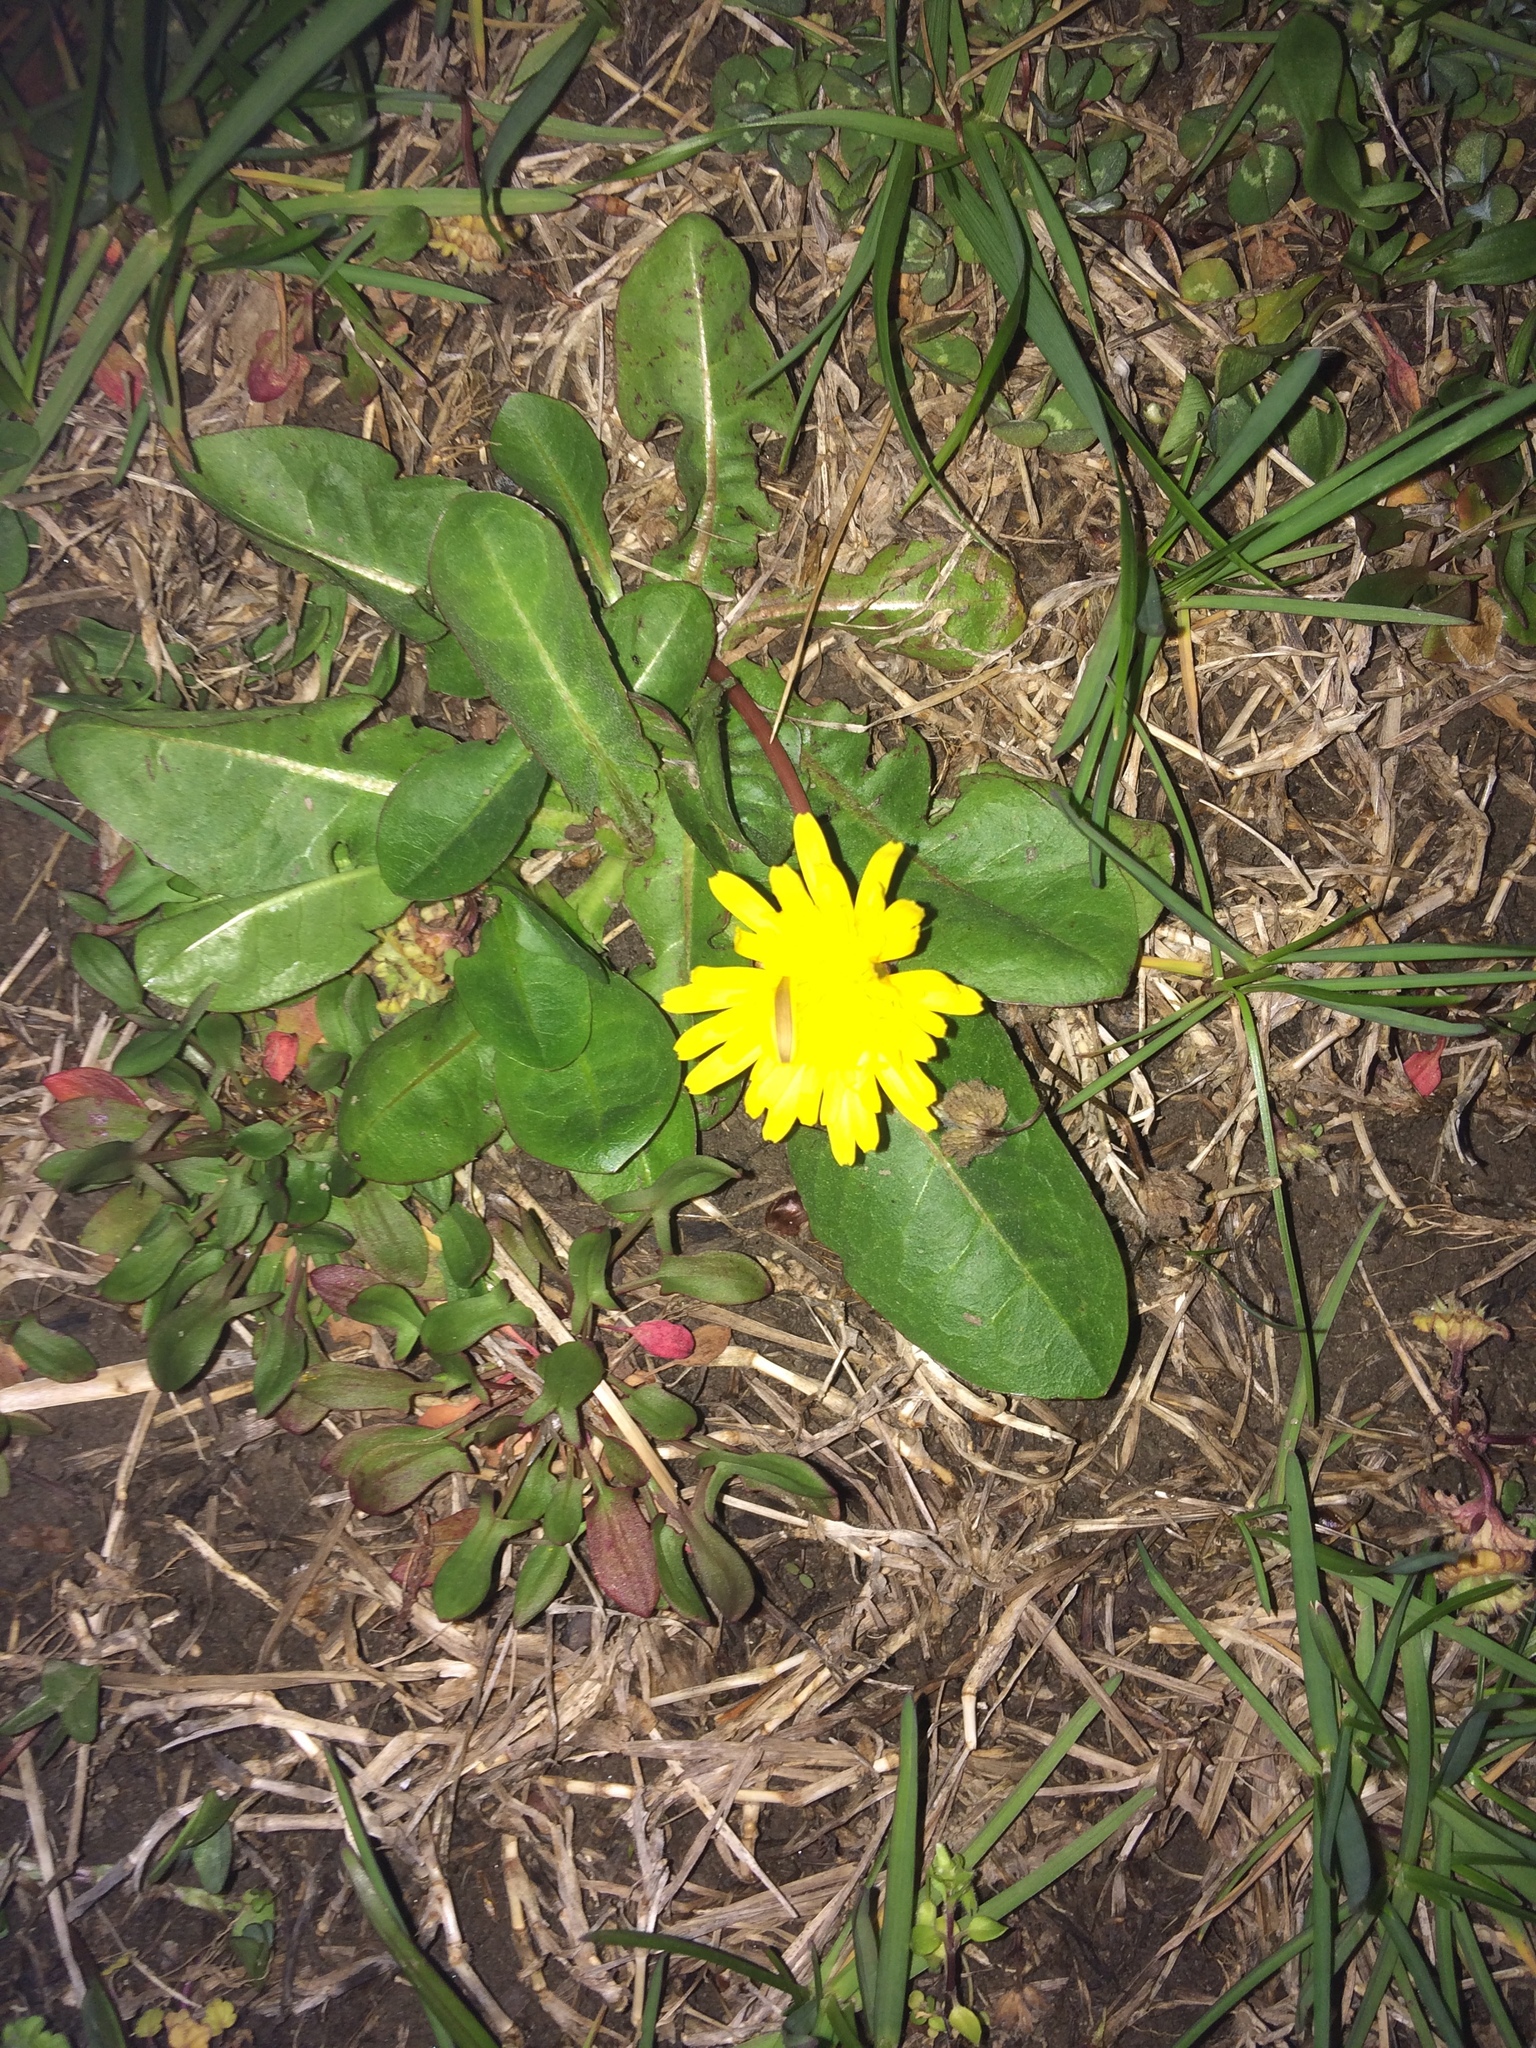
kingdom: Plantae
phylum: Tracheophyta
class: Magnoliopsida
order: Asterales
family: Asteraceae
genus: Taraxacum
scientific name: Taraxacum officinale
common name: Common dandelion
